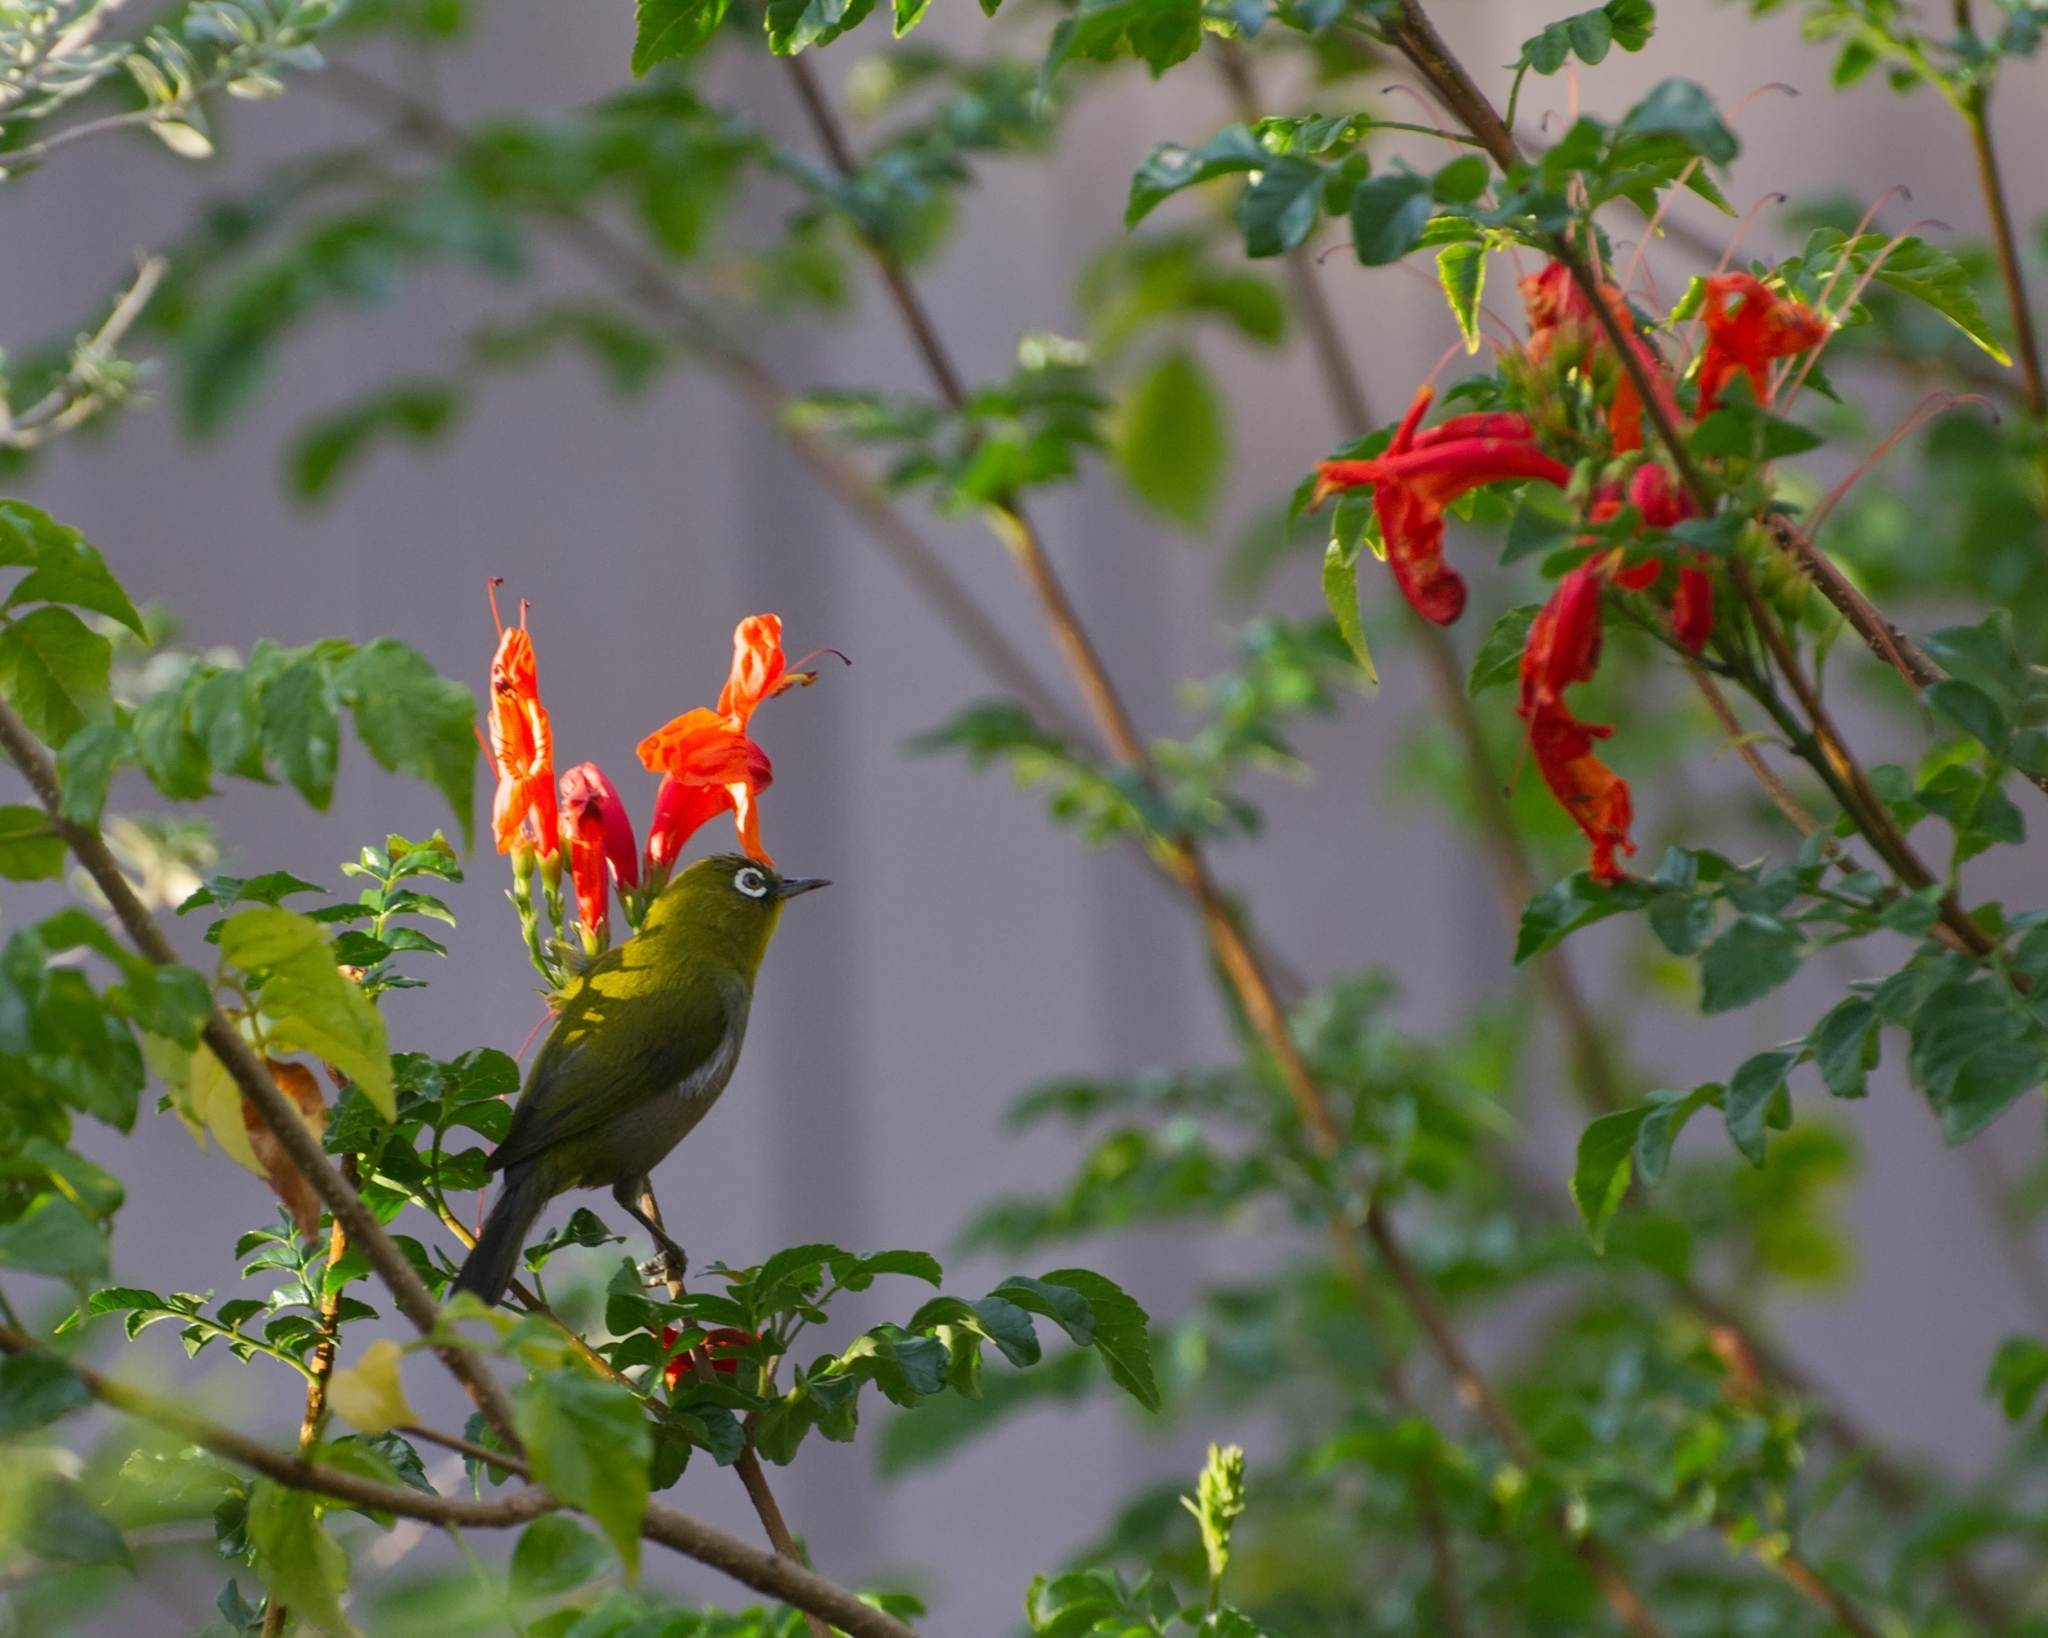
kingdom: Animalia
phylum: Chordata
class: Aves
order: Passeriformes
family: Zosteropidae
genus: Zosterops
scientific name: Zosterops virens
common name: Cape white-eye
